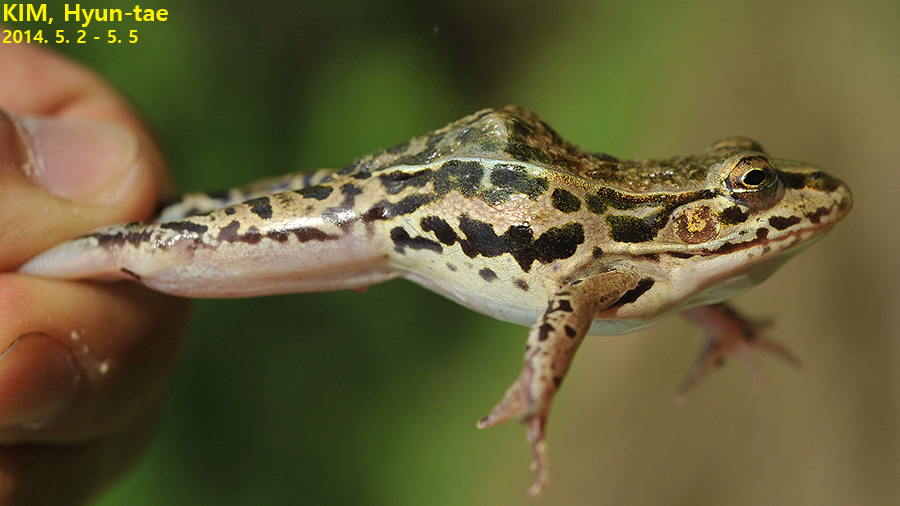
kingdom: Animalia
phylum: Chordata
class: Amphibia
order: Anura
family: Ranidae
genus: Pelophylax
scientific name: Pelophylax nigromaculatus
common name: Black-spotted pond frog
